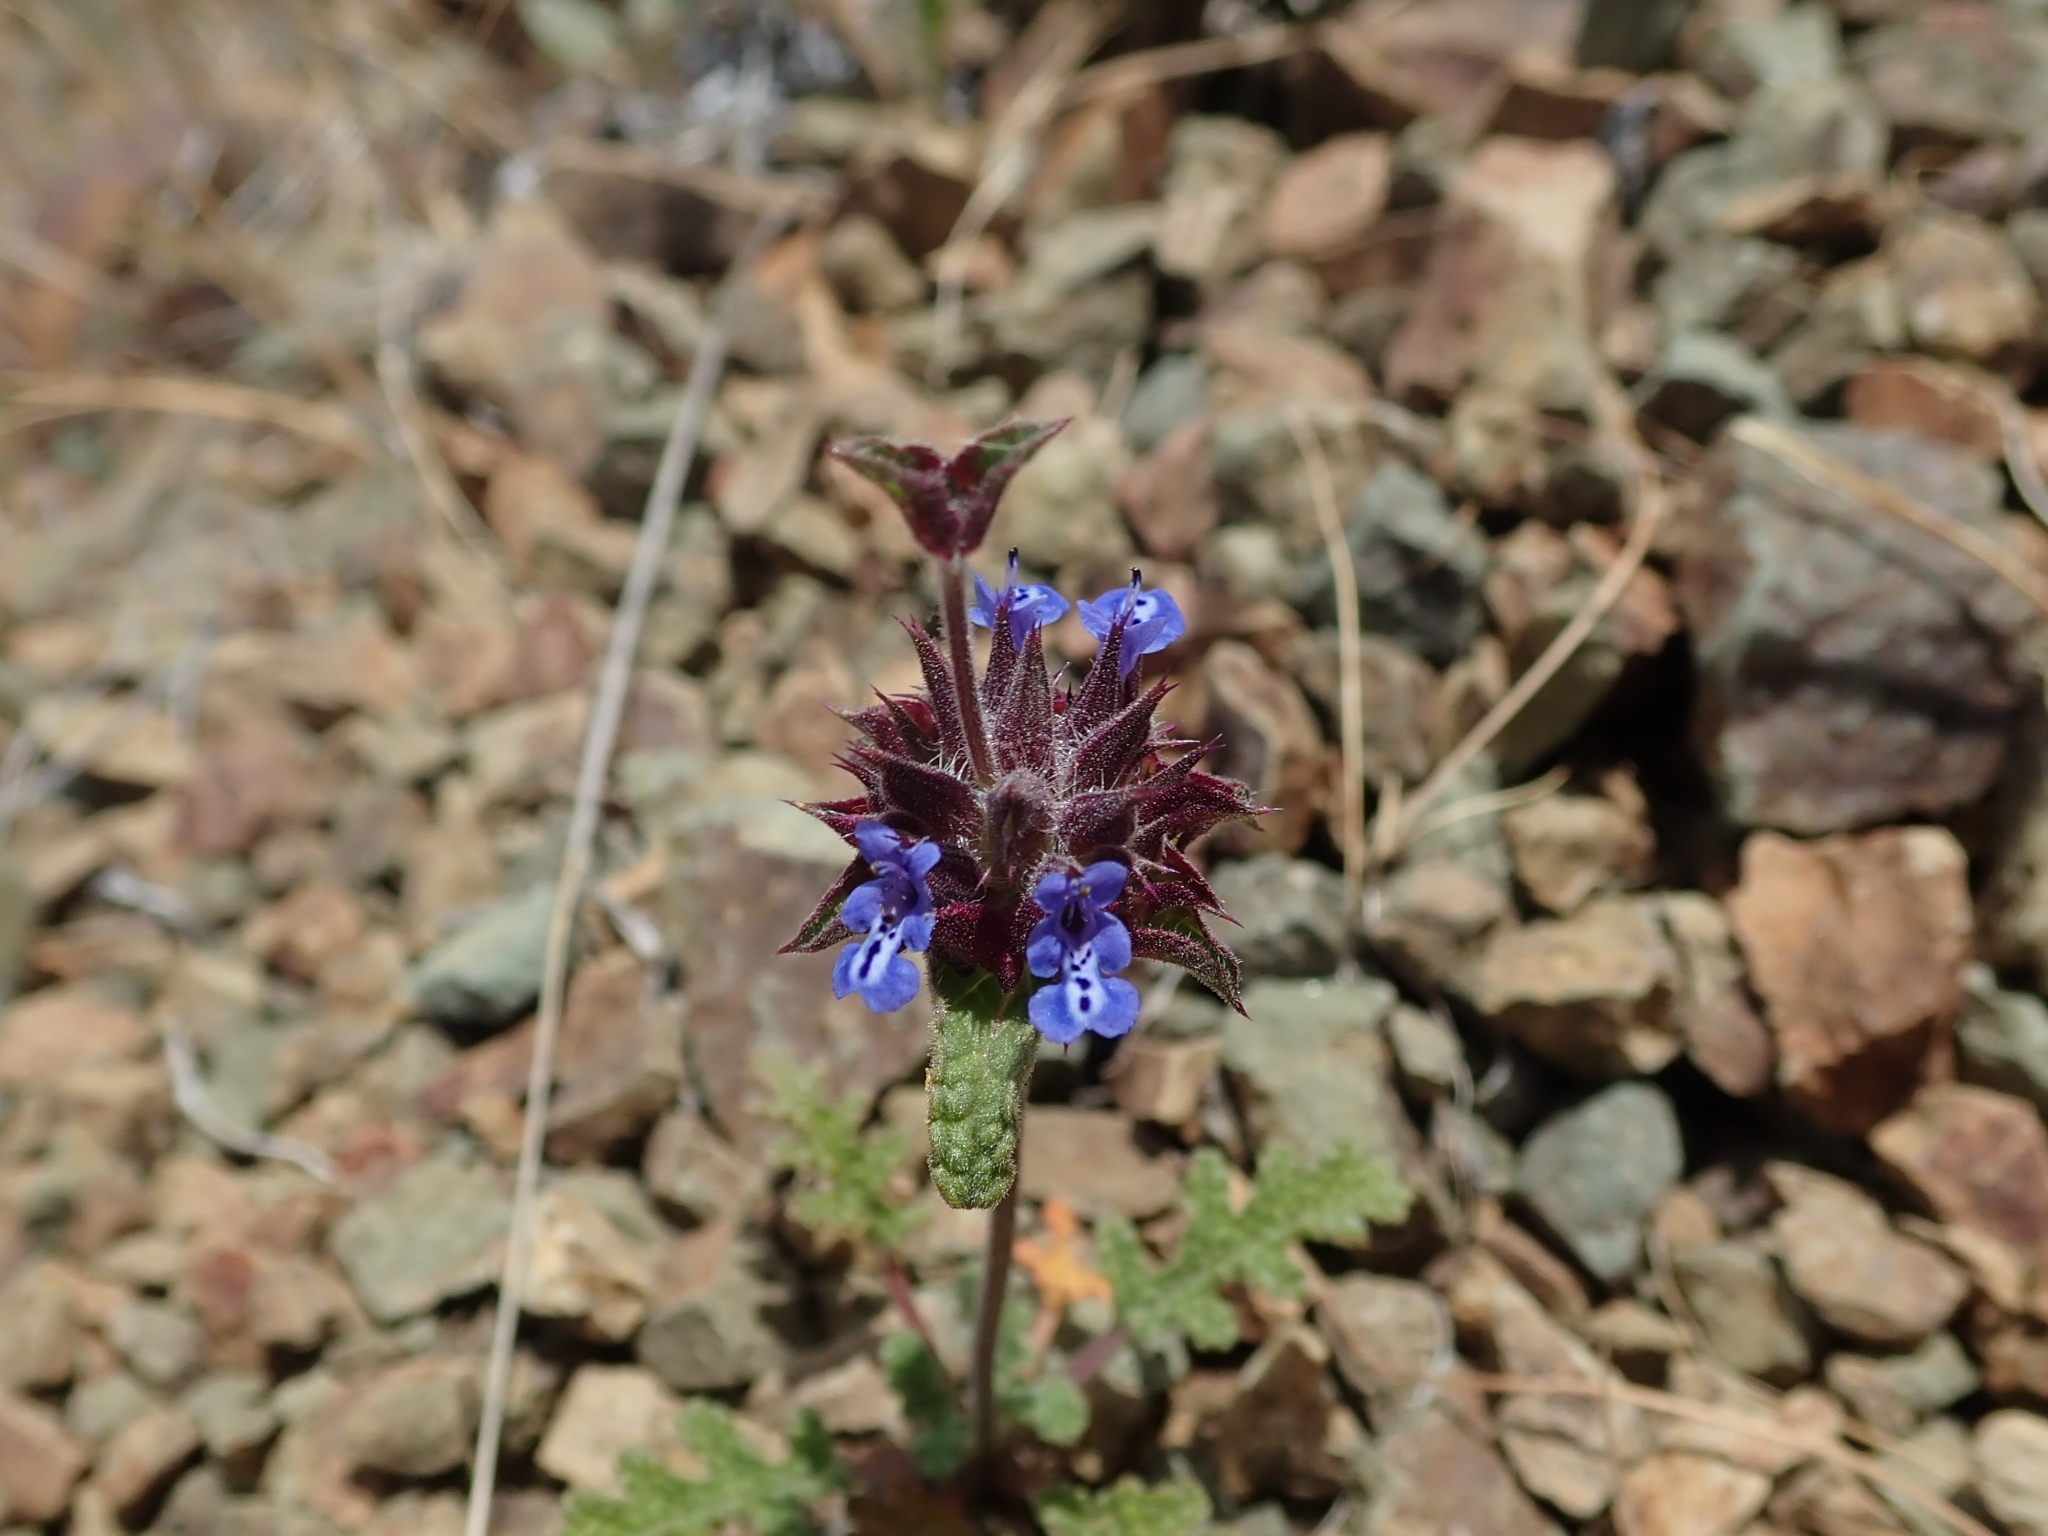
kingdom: Plantae
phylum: Tracheophyta
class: Magnoliopsida
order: Lamiales
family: Lamiaceae
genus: Salvia
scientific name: Salvia columbariae
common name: Chia
